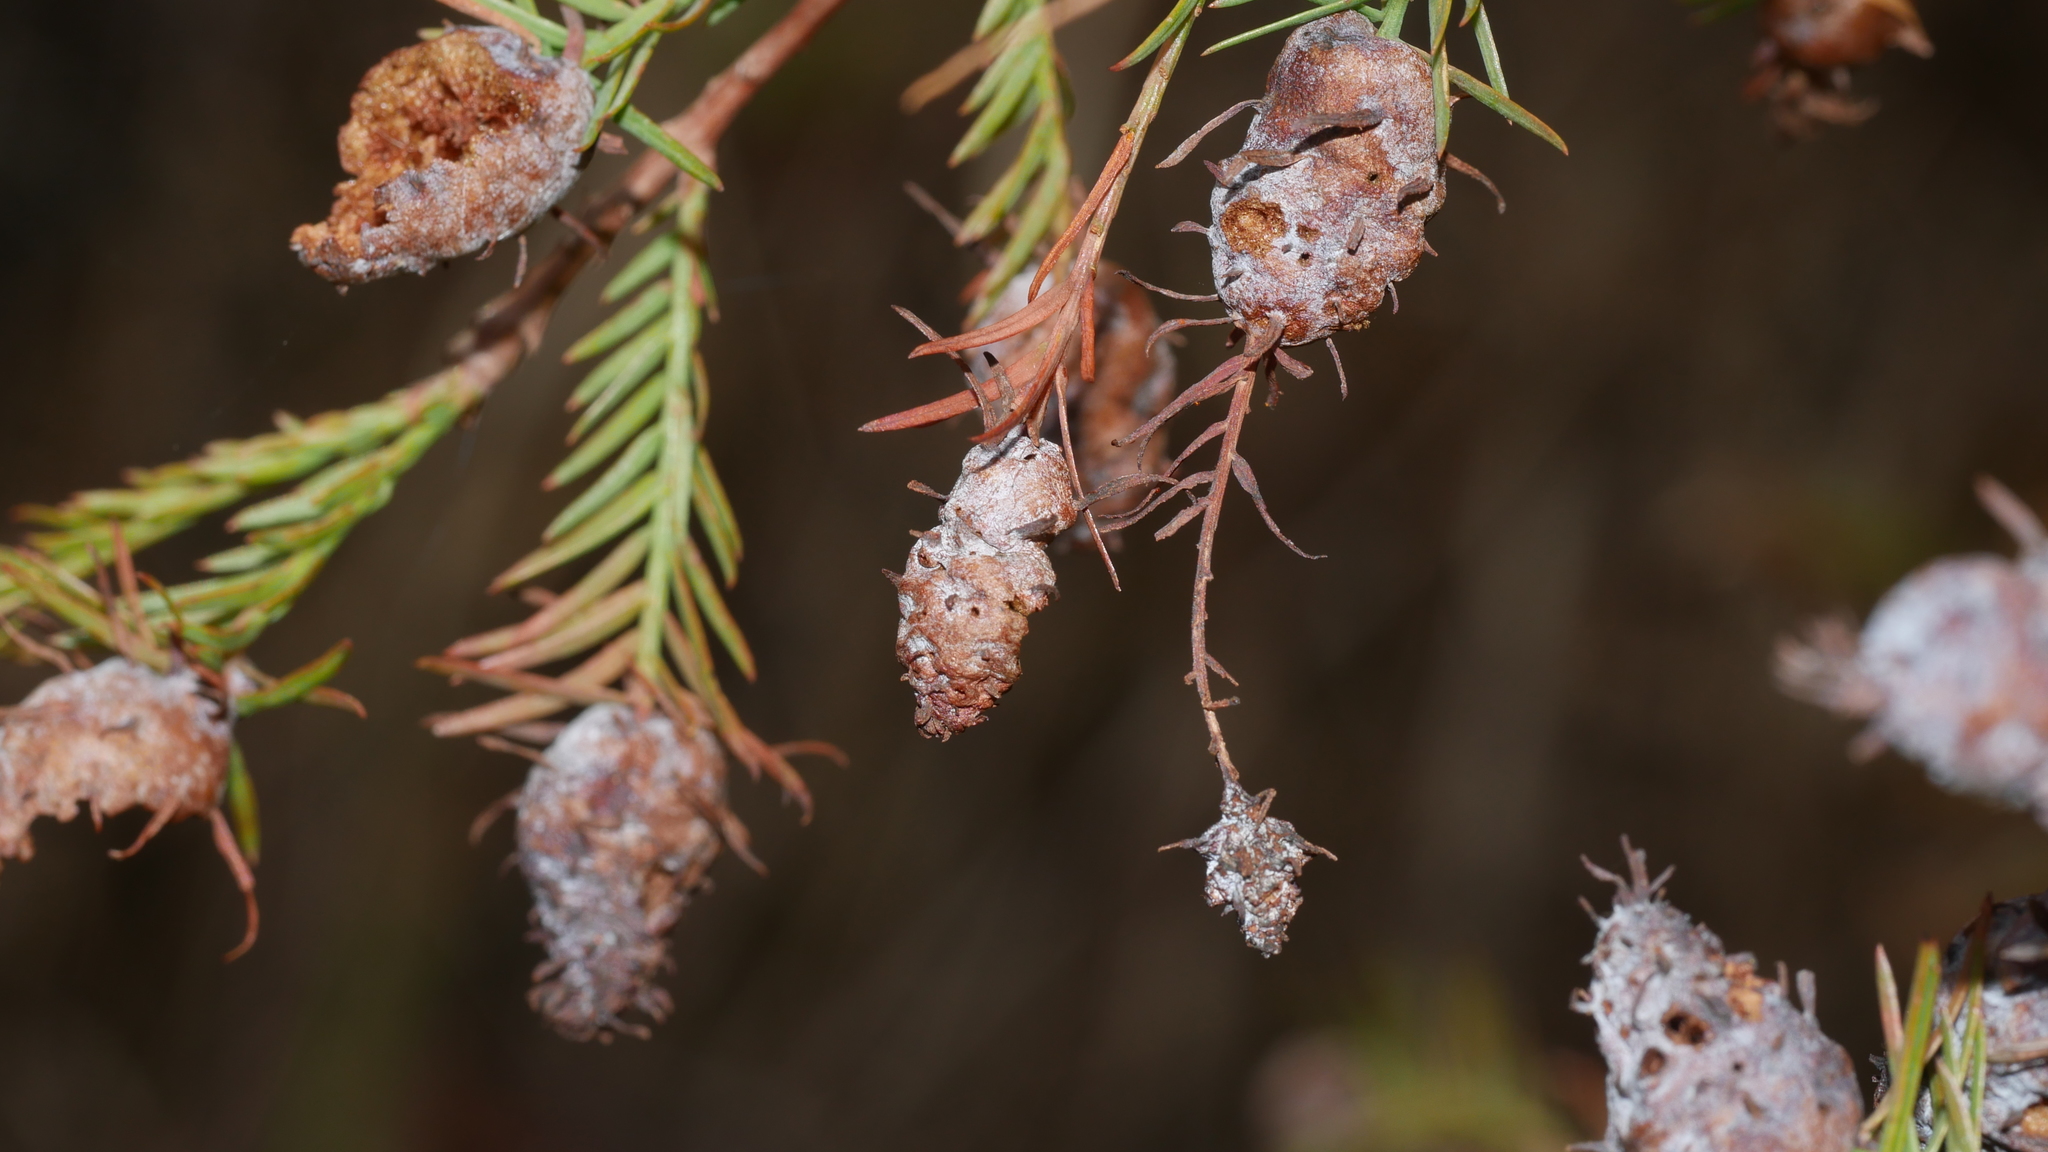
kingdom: Animalia
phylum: Arthropoda
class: Insecta
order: Diptera
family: Cecidomyiidae
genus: Taxodiomyia
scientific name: Taxodiomyia cupressiananassa
